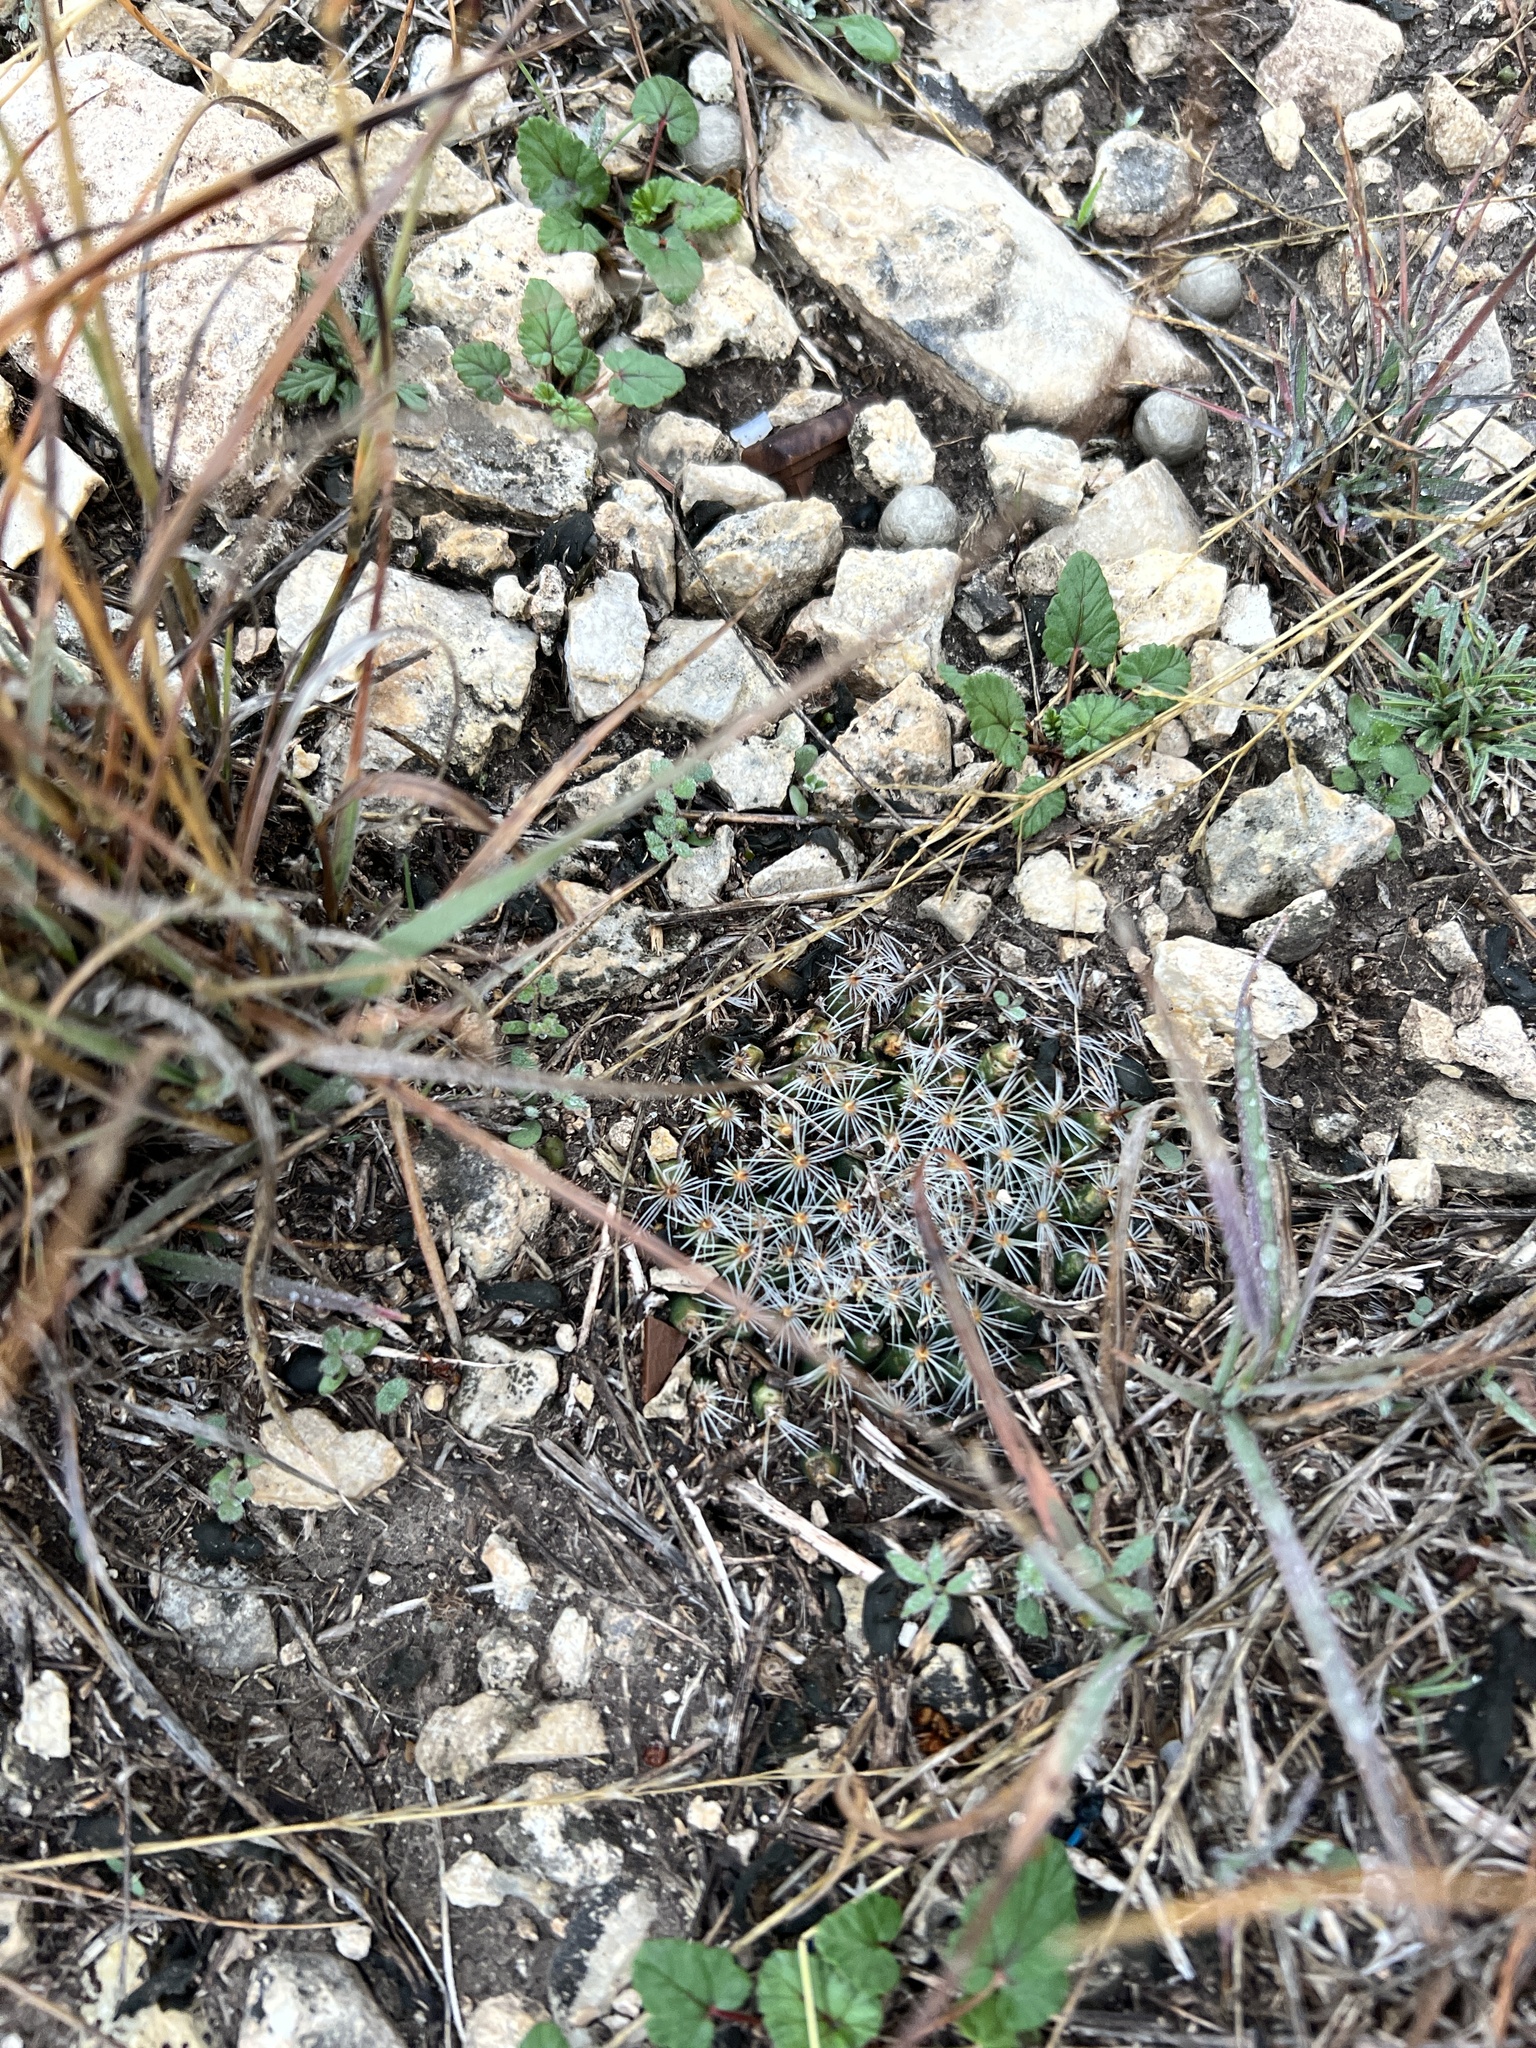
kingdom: Plantae
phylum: Tracheophyta
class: Magnoliopsida
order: Caryophyllales
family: Cactaceae
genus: Mammillaria
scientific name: Mammillaria heyderi
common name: Little nipple cactus
